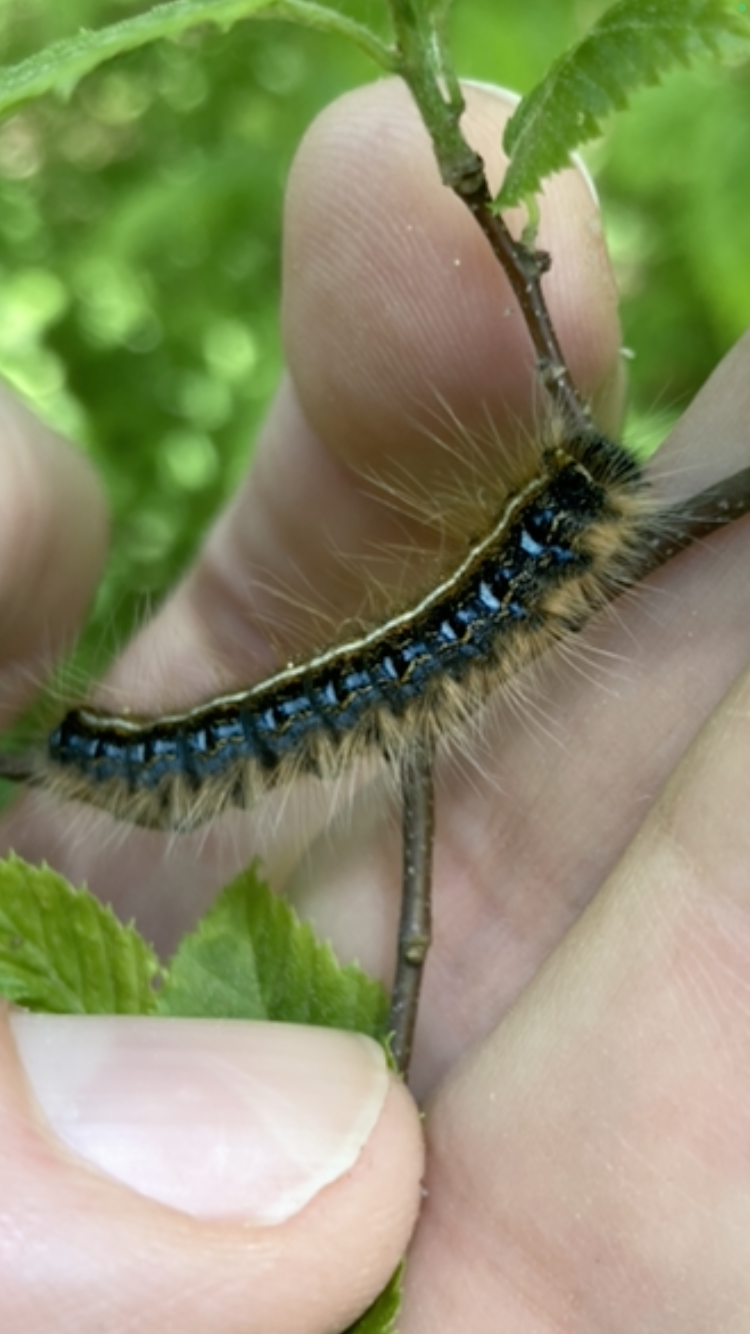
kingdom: Animalia
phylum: Arthropoda
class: Insecta
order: Lepidoptera
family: Lasiocampidae
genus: Malacosoma
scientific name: Malacosoma americana
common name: Eastern tent caterpillar moth
